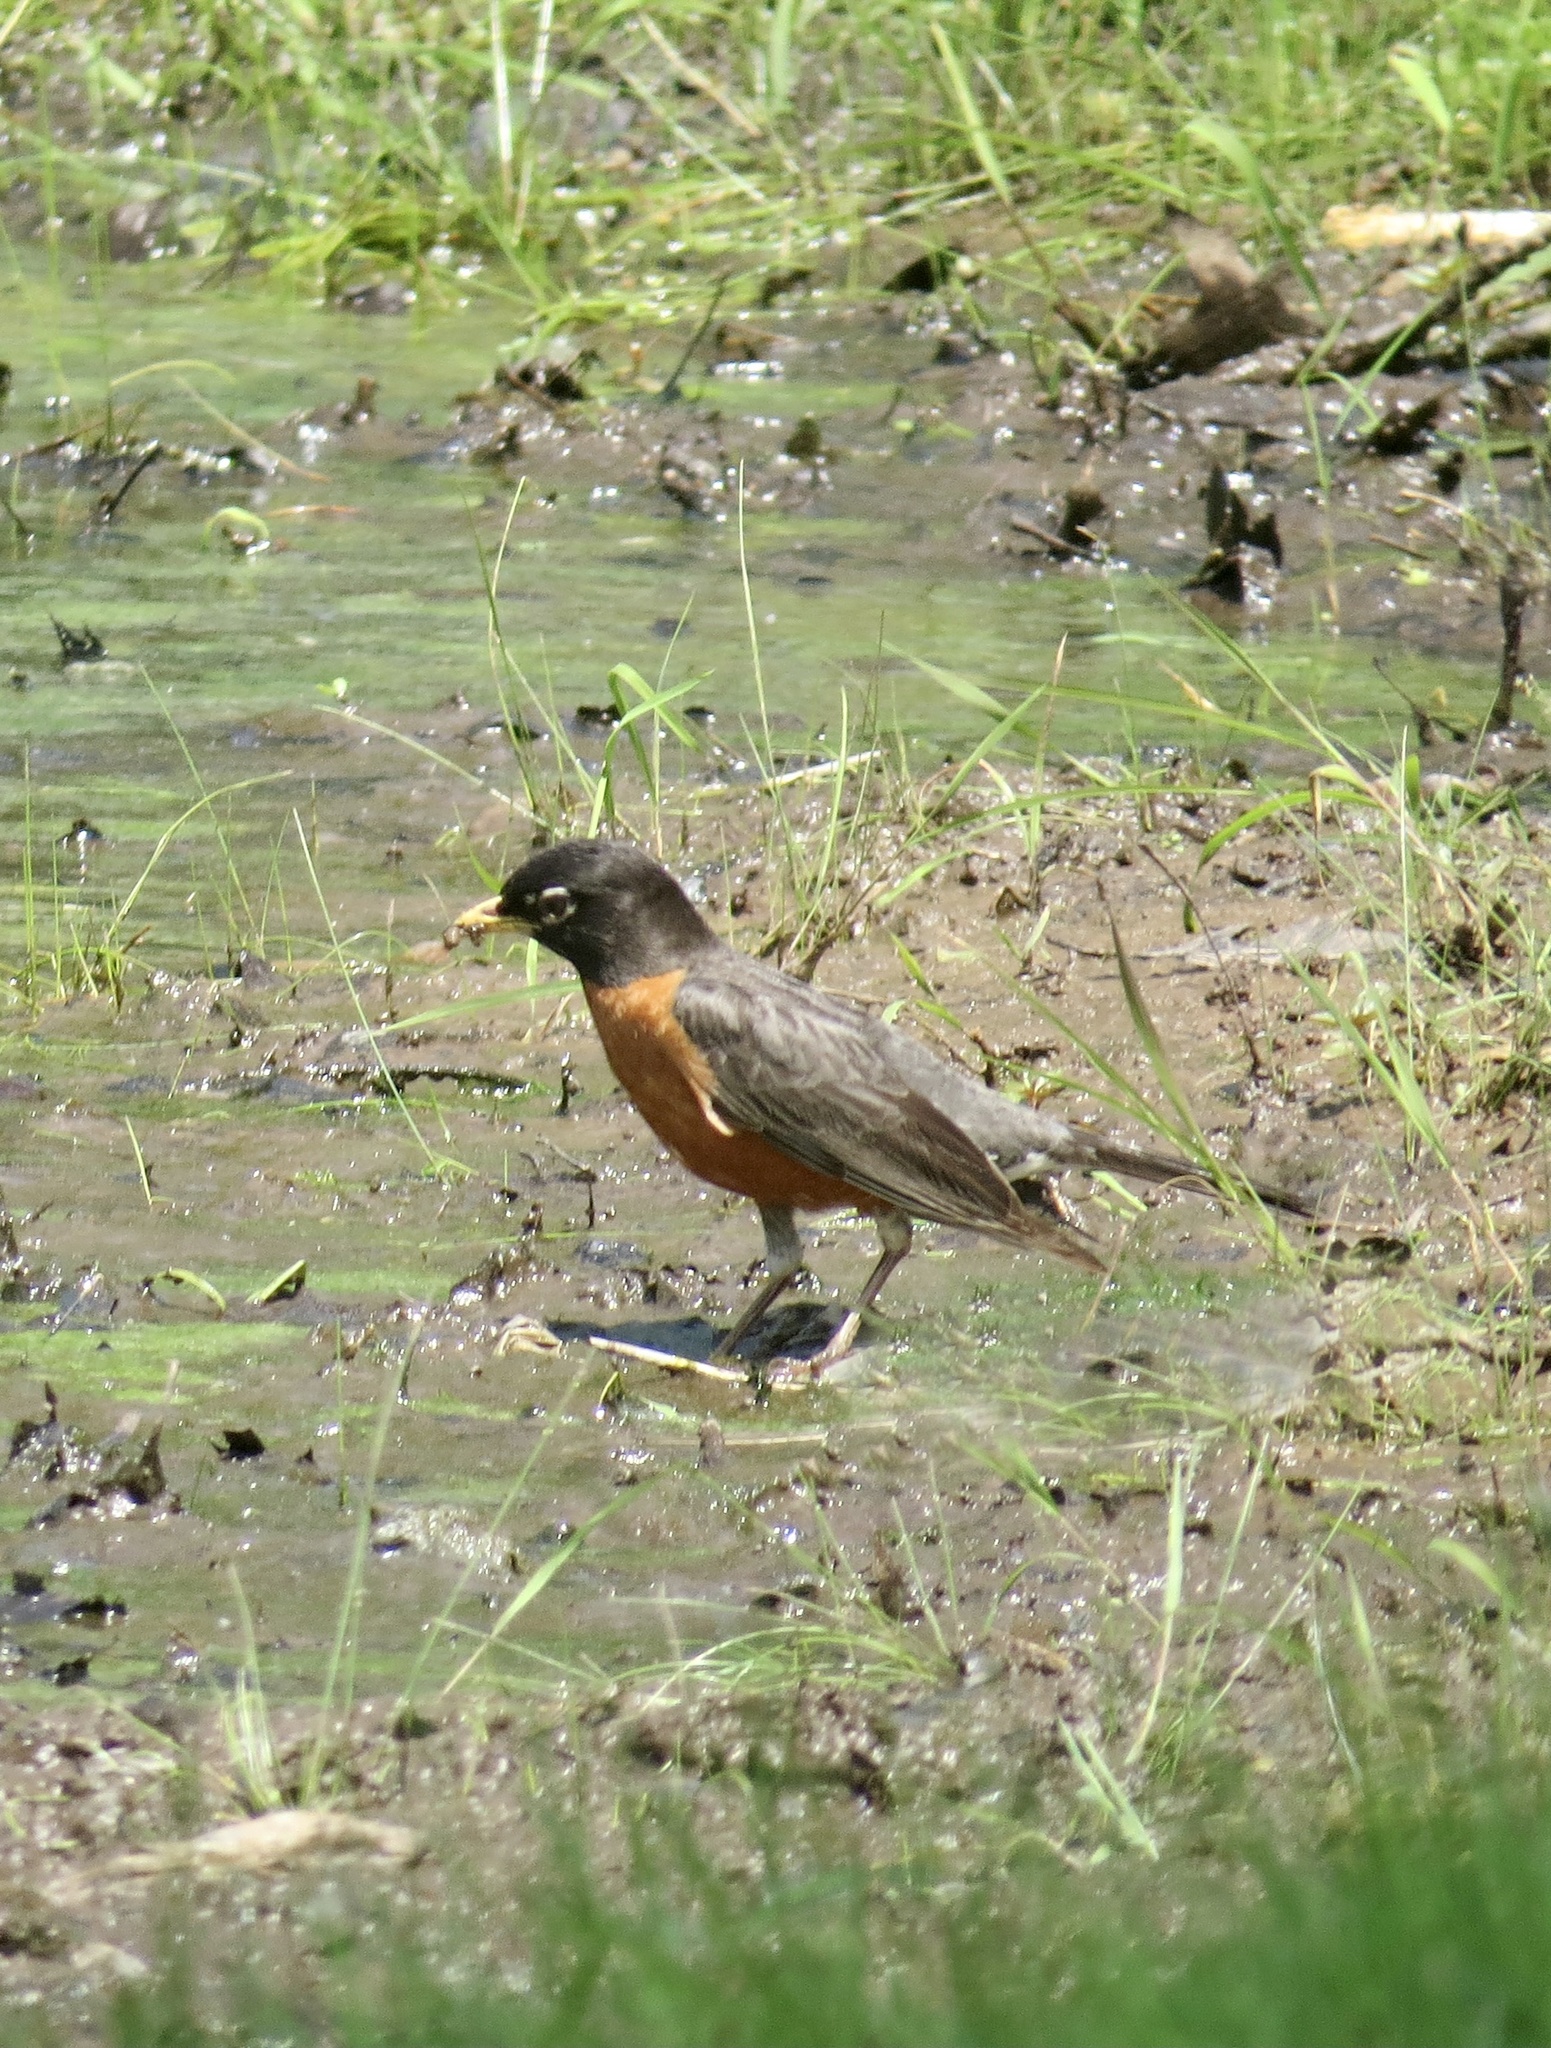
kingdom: Animalia
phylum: Chordata
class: Aves
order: Passeriformes
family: Turdidae
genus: Turdus
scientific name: Turdus migratorius
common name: American robin
